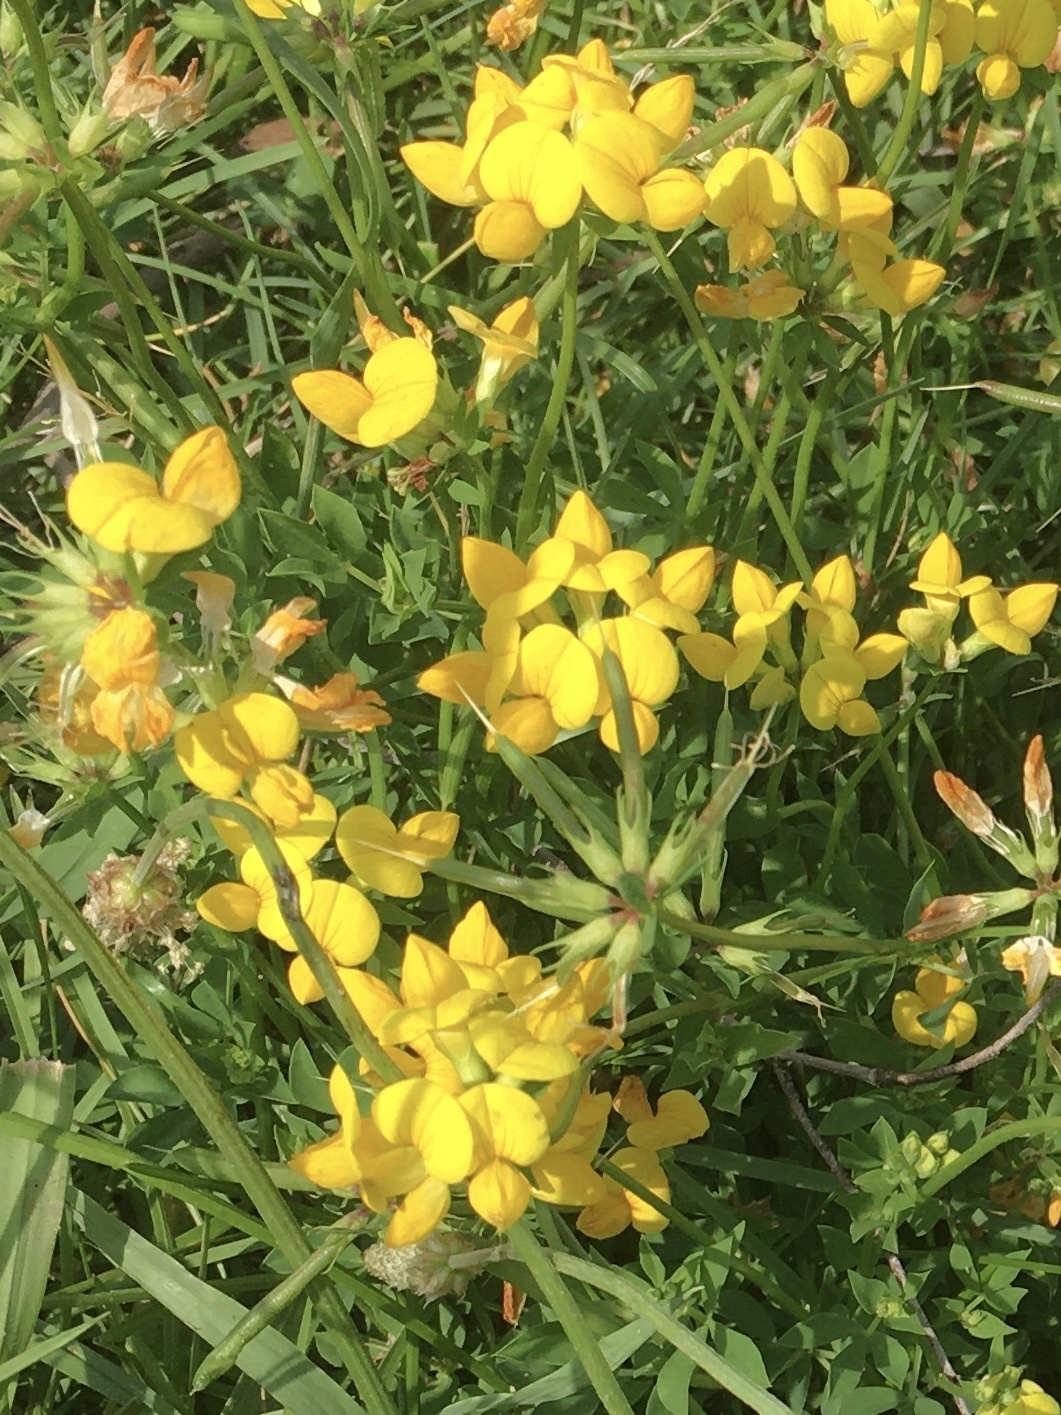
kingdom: Plantae
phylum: Tracheophyta
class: Magnoliopsida
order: Fabales
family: Fabaceae
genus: Lotus
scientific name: Lotus corniculatus
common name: Common bird's-foot-trefoil
